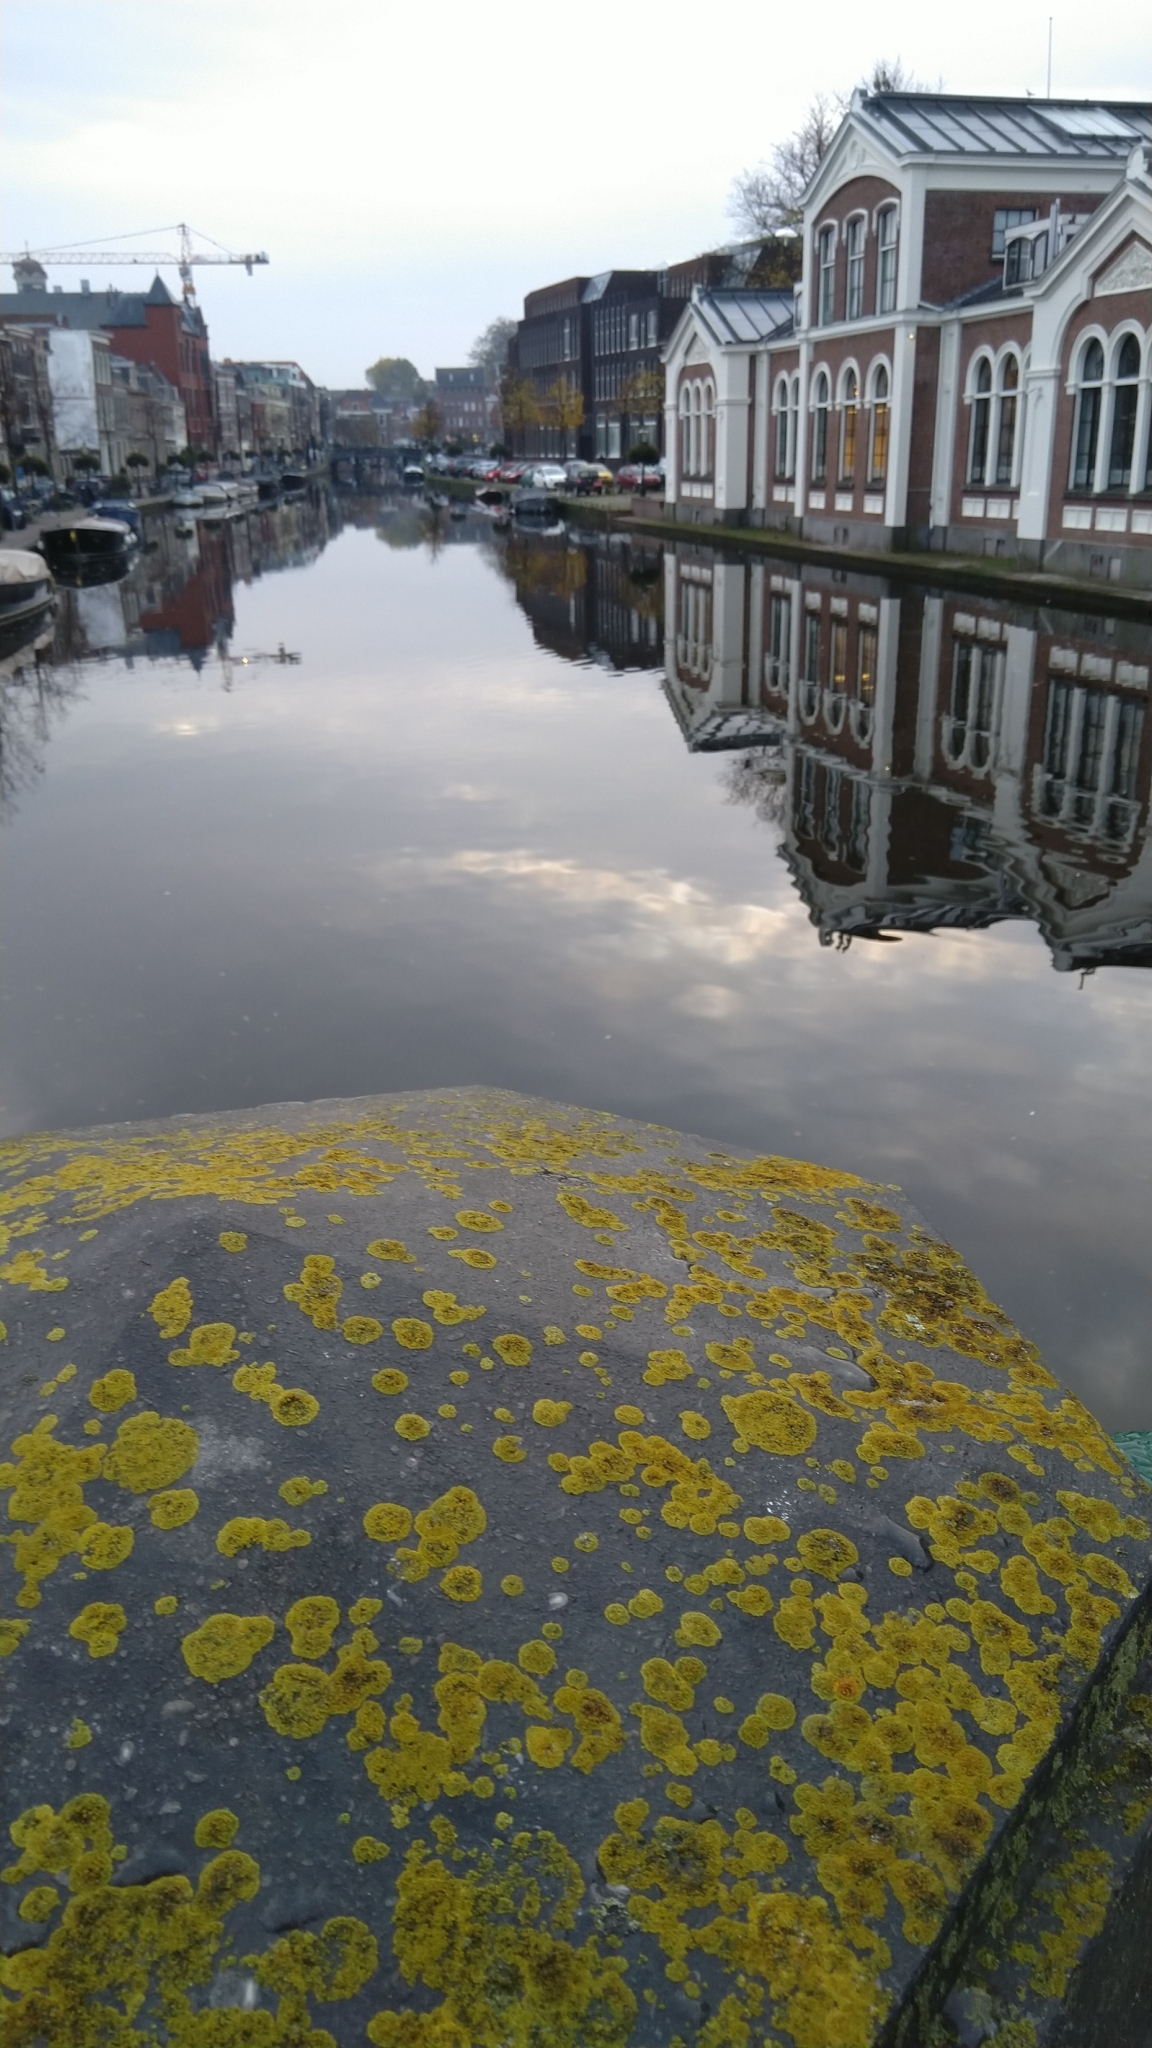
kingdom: Fungi
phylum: Ascomycota
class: Lecanoromycetes
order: Teloschistales
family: Teloschistaceae
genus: Calogaya
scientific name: Calogaya saxicola
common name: Rock jewel lichen
